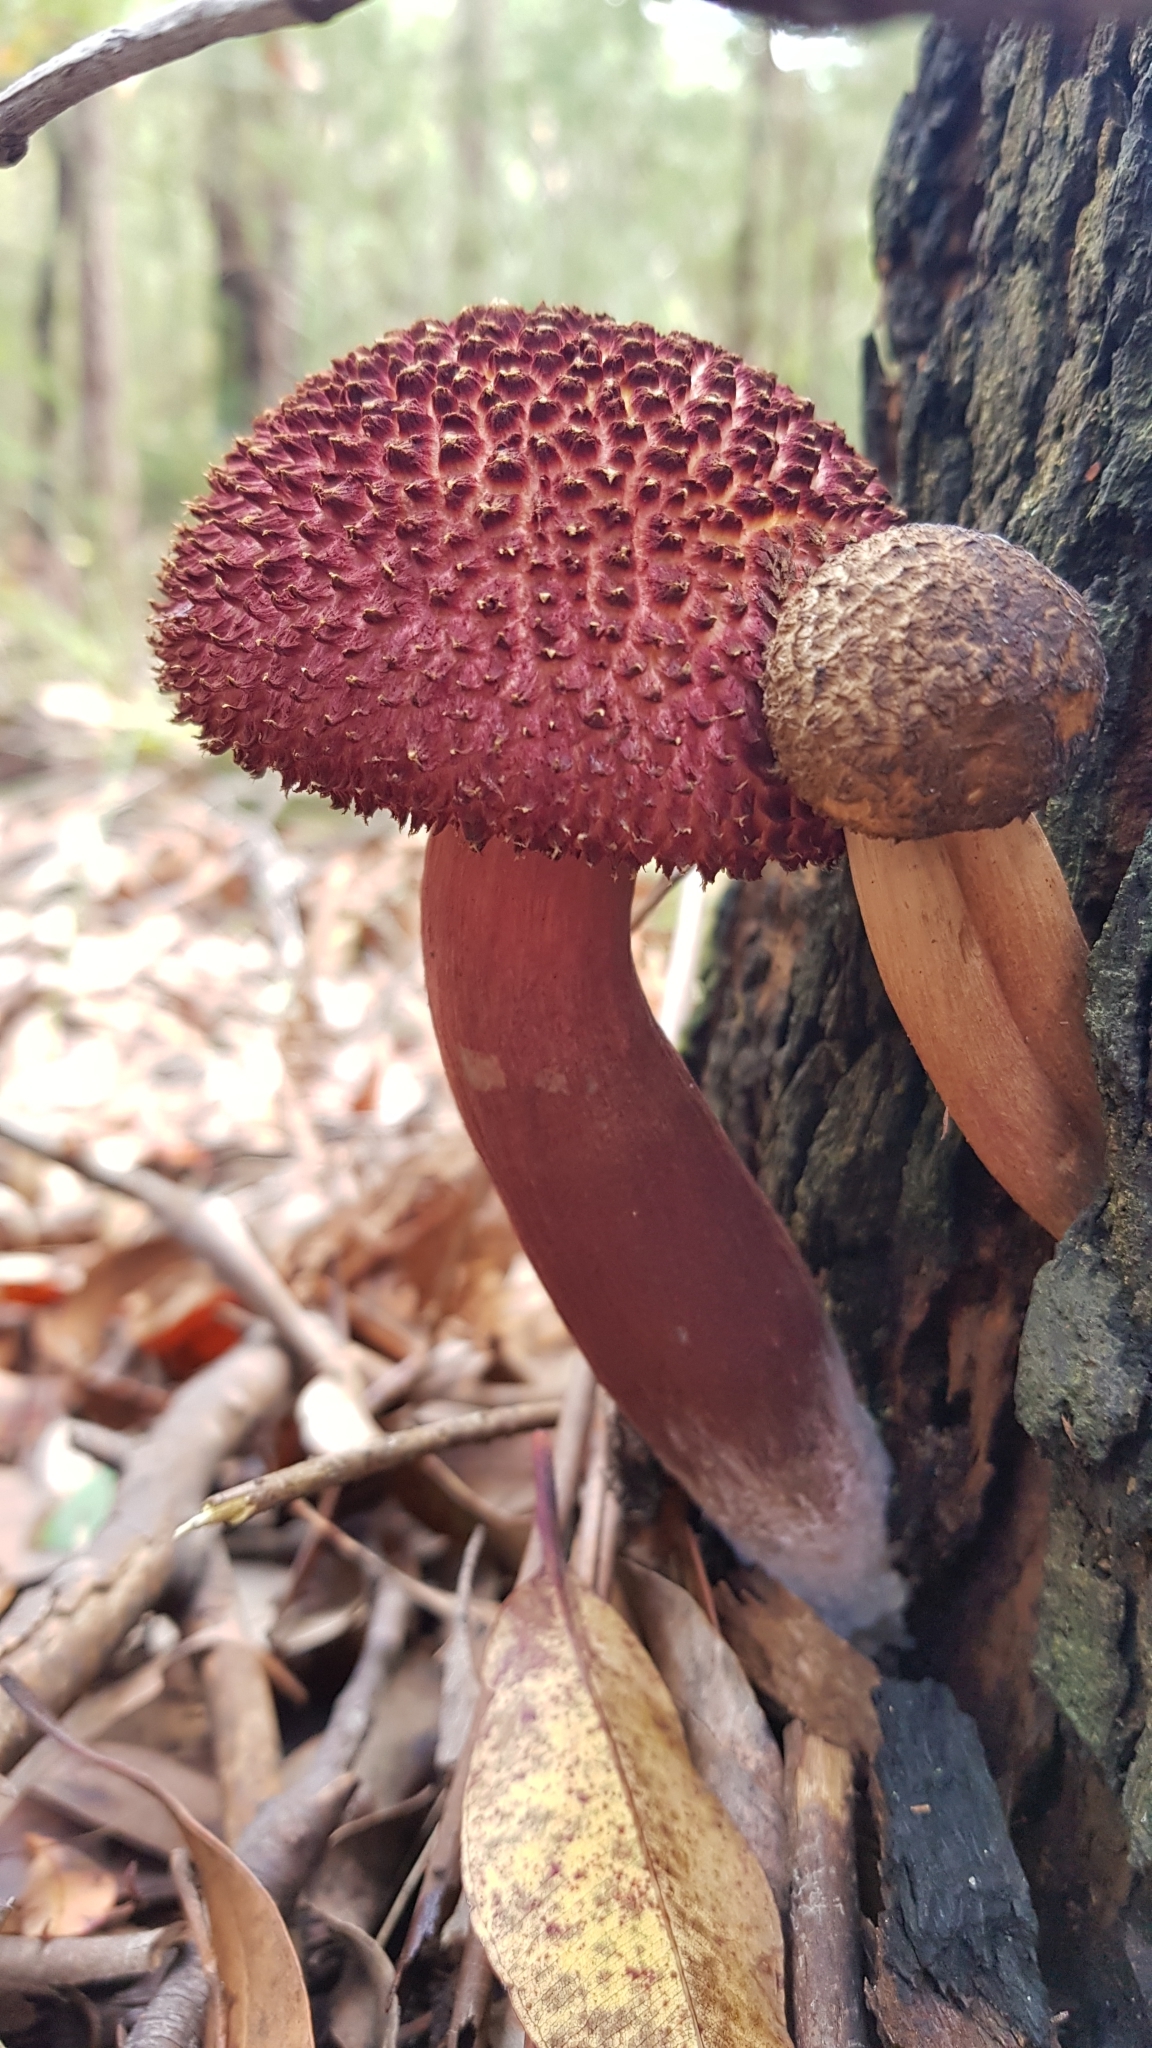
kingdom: Fungi
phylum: Basidiomycota
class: Agaricomycetes
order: Boletales
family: Boletaceae
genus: Boletellus
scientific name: Boletellus emodensis
